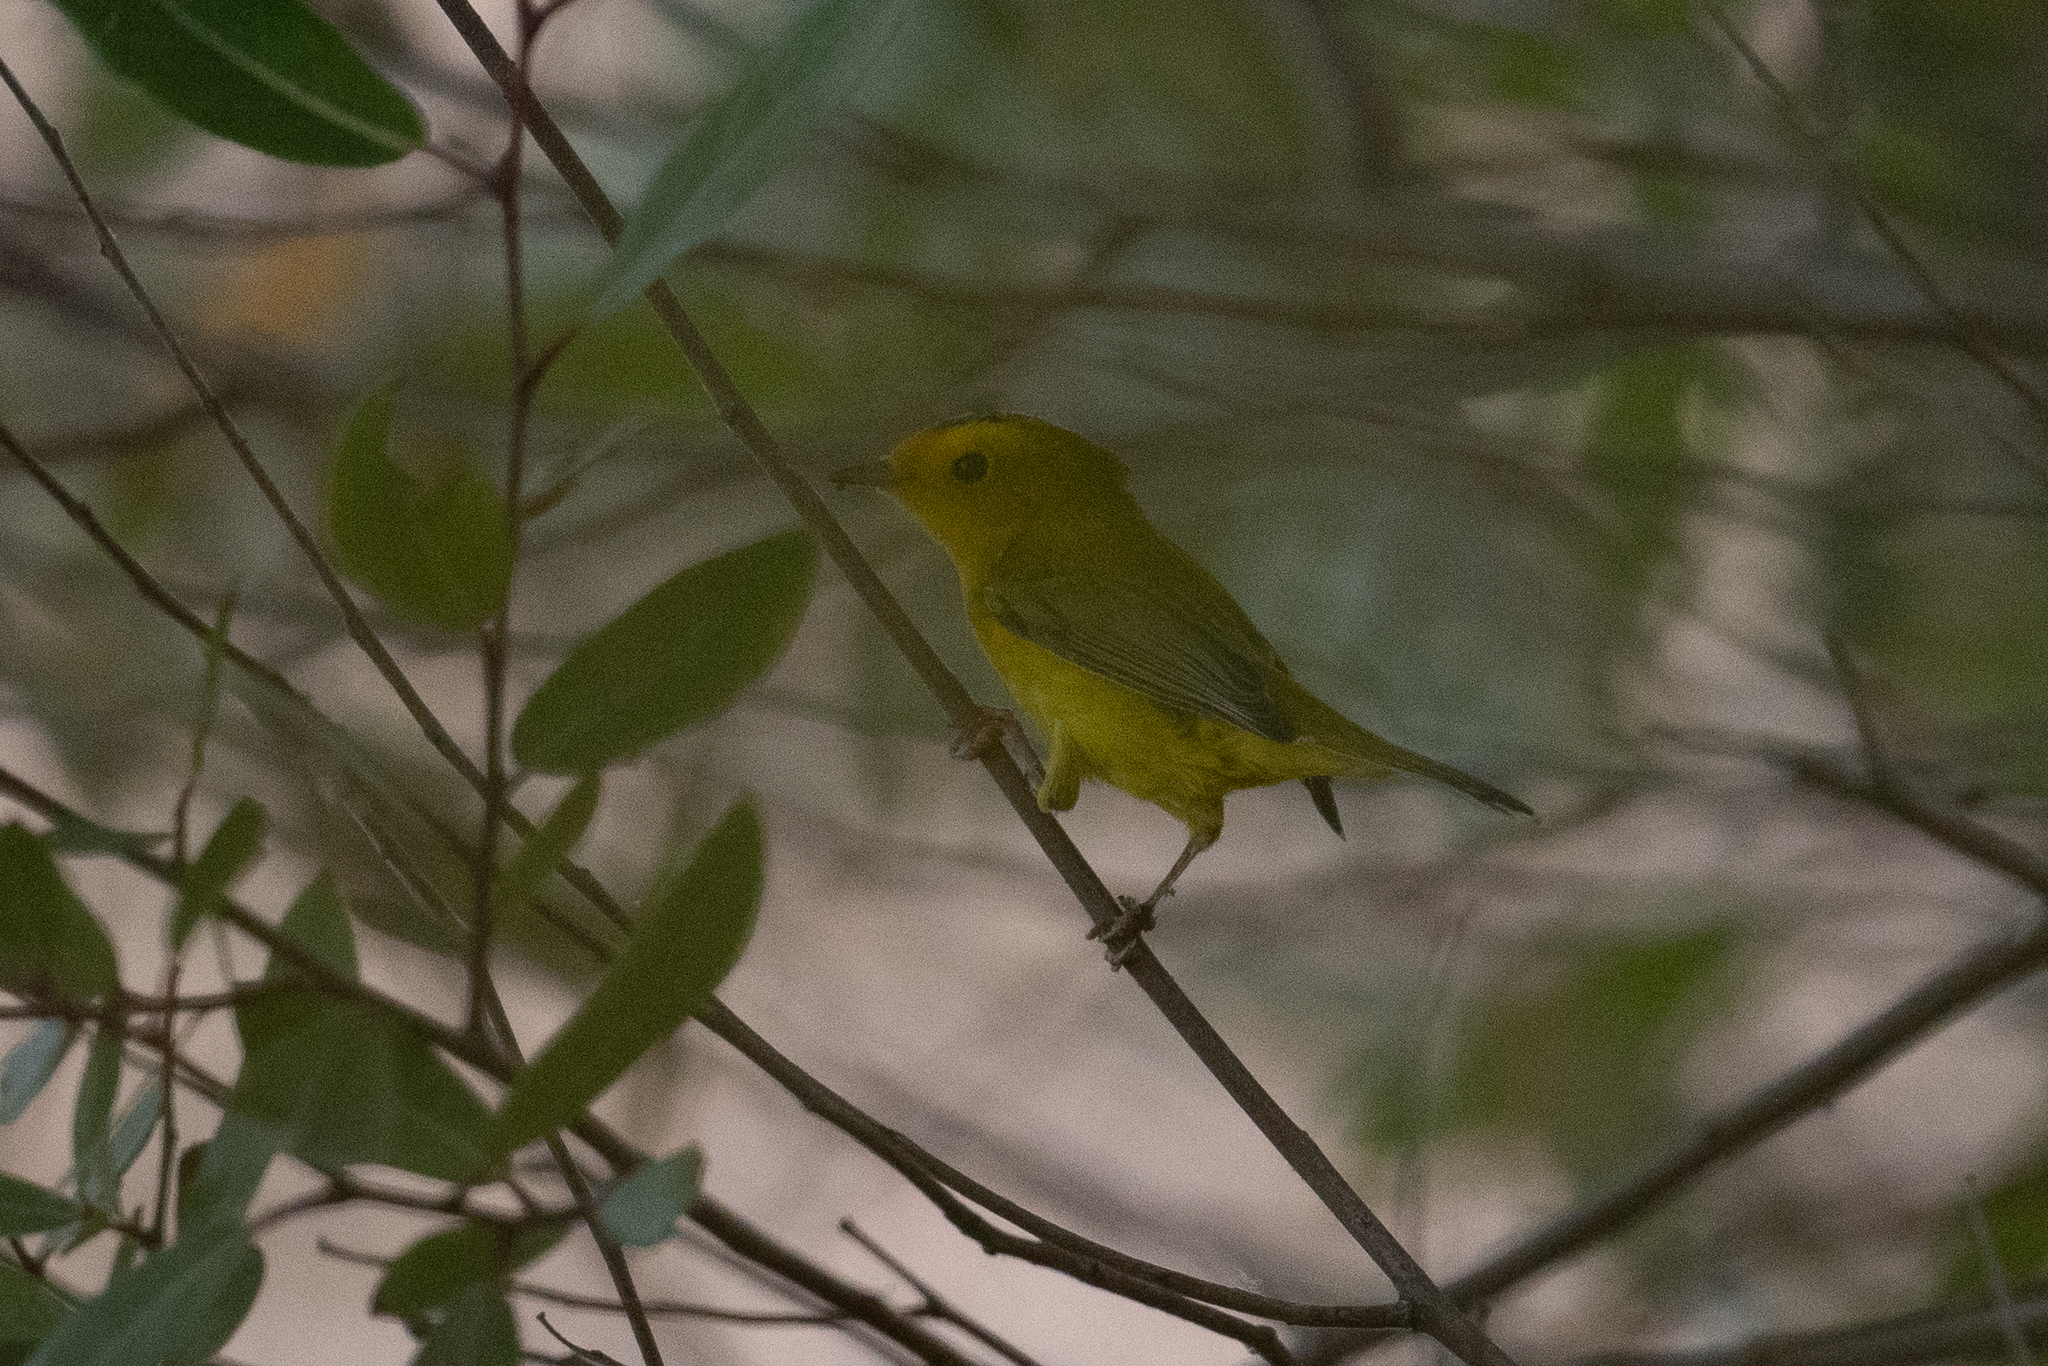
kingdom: Animalia
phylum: Chordata
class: Aves
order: Passeriformes
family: Parulidae
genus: Cardellina
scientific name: Cardellina pusilla
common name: Wilson's warbler
